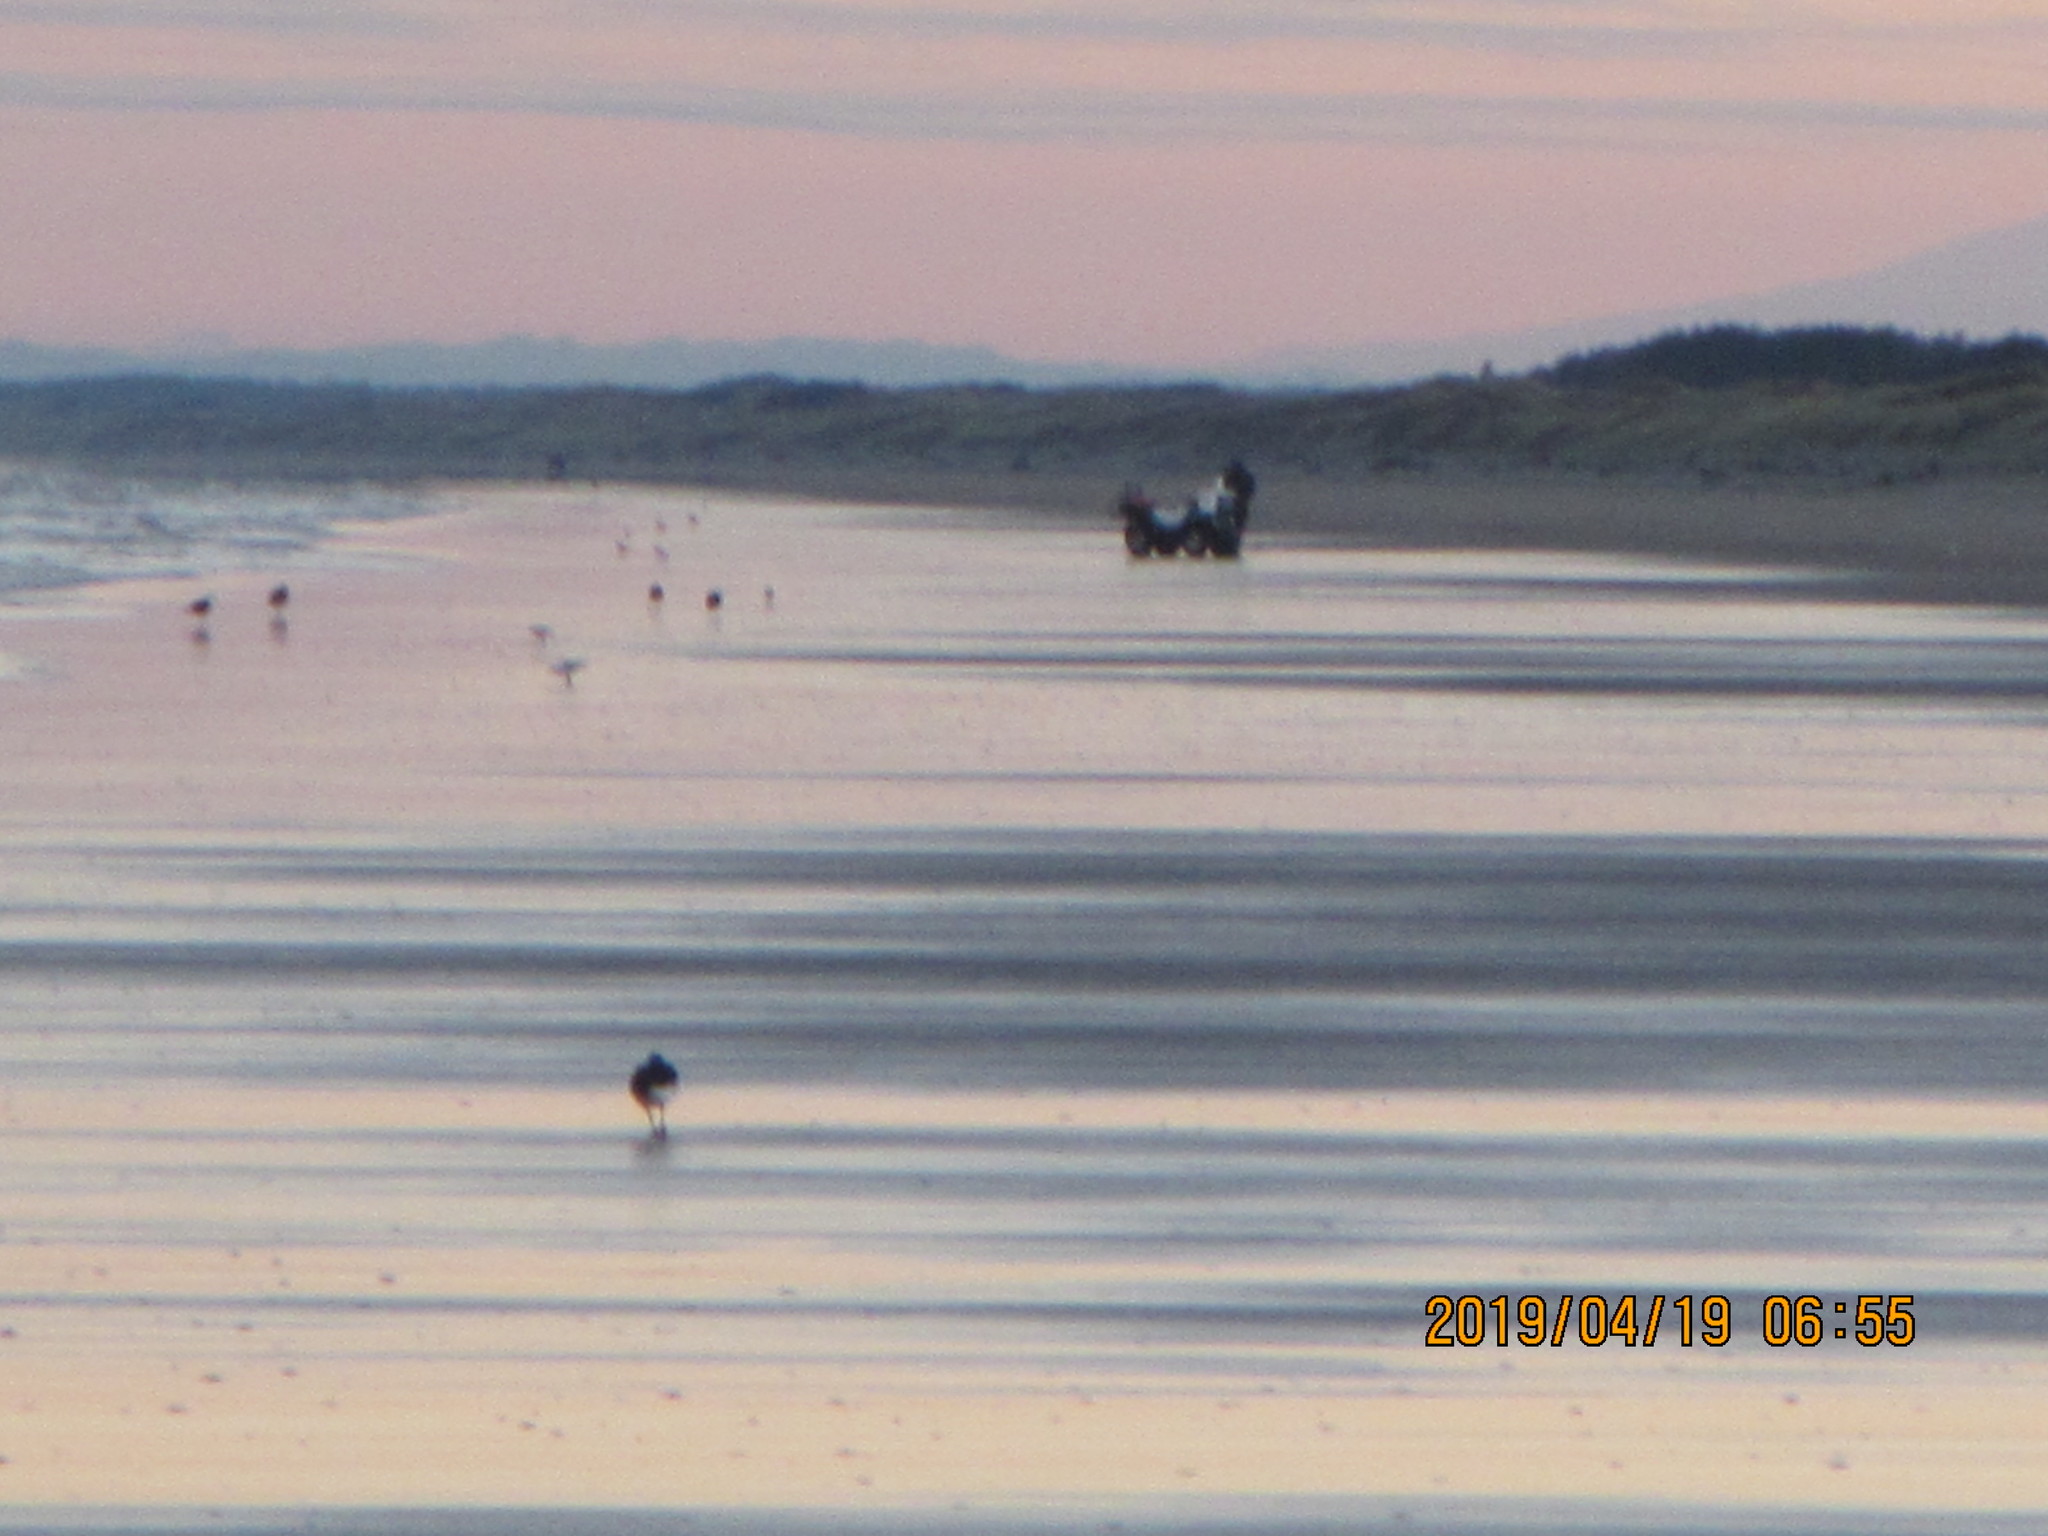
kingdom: Animalia
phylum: Chordata
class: Aves
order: Charadriiformes
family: Haematopodidae
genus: Haematopus
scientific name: Haematopus finschi
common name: South island oystercatcher
